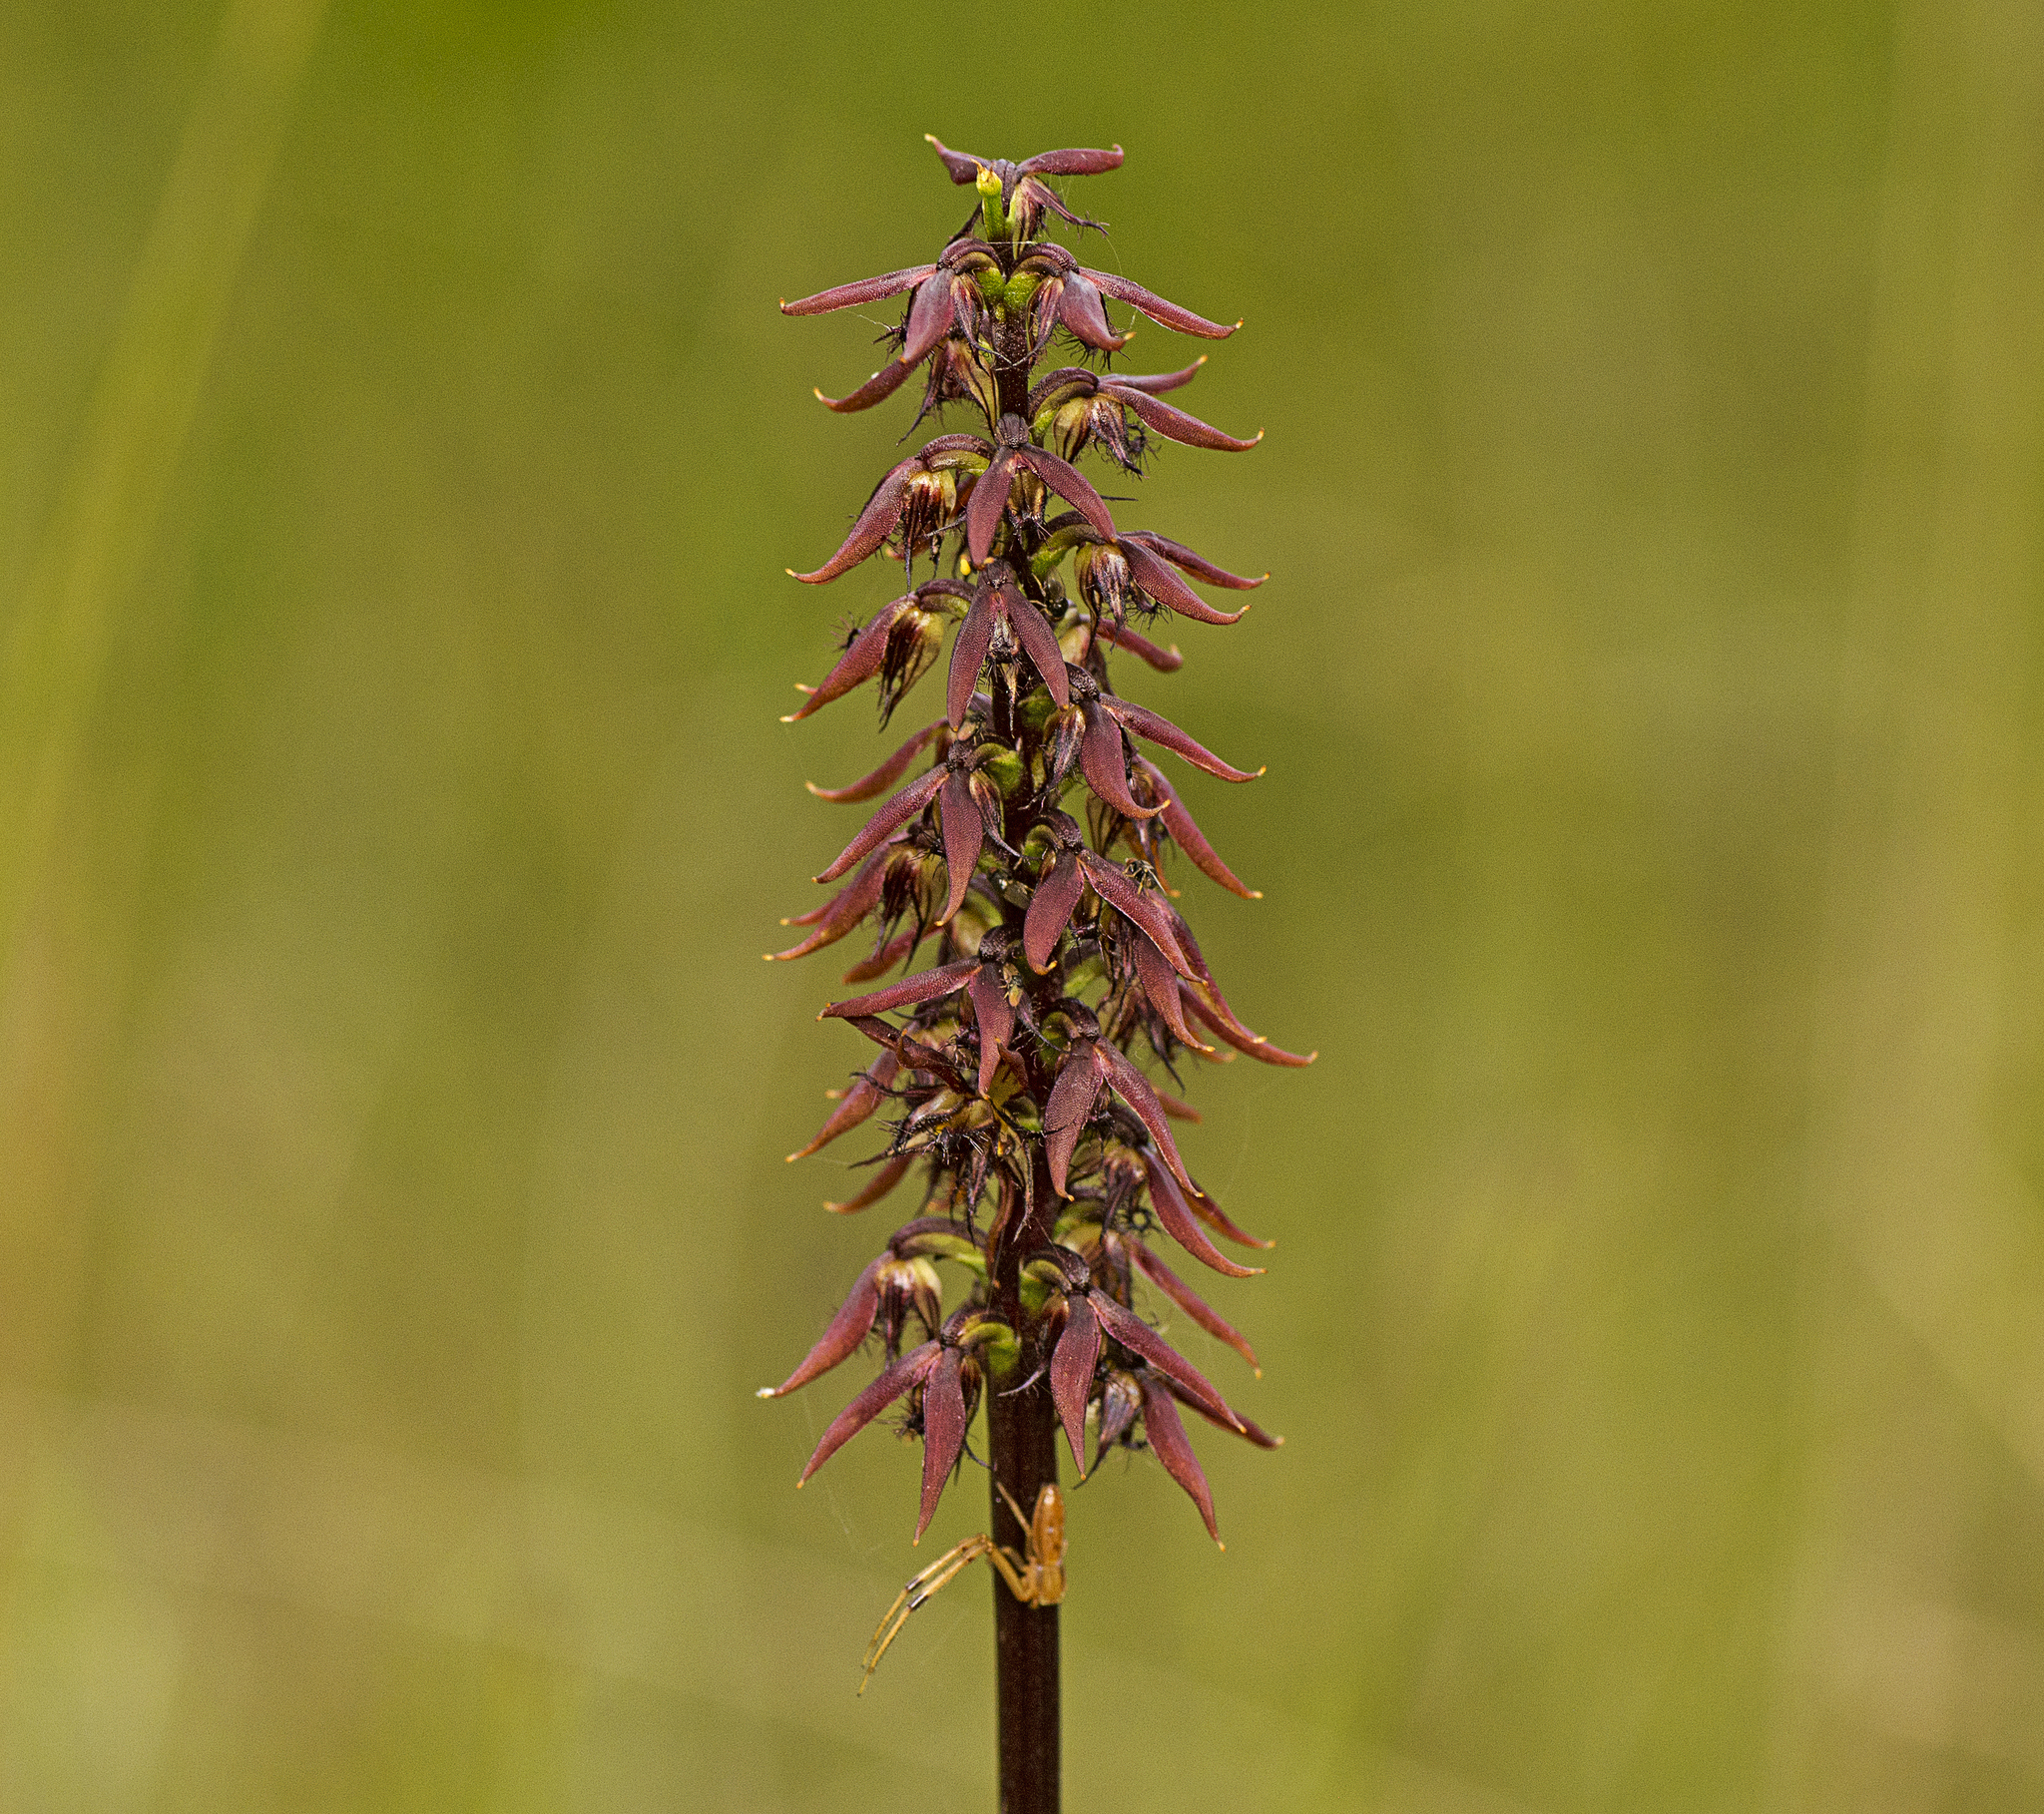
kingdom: Plantae
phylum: Tracheophyta
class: Liliopsida
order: Asparagales
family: Orchidaceae
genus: Genoplesium
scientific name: Genoplesium acuminatum
